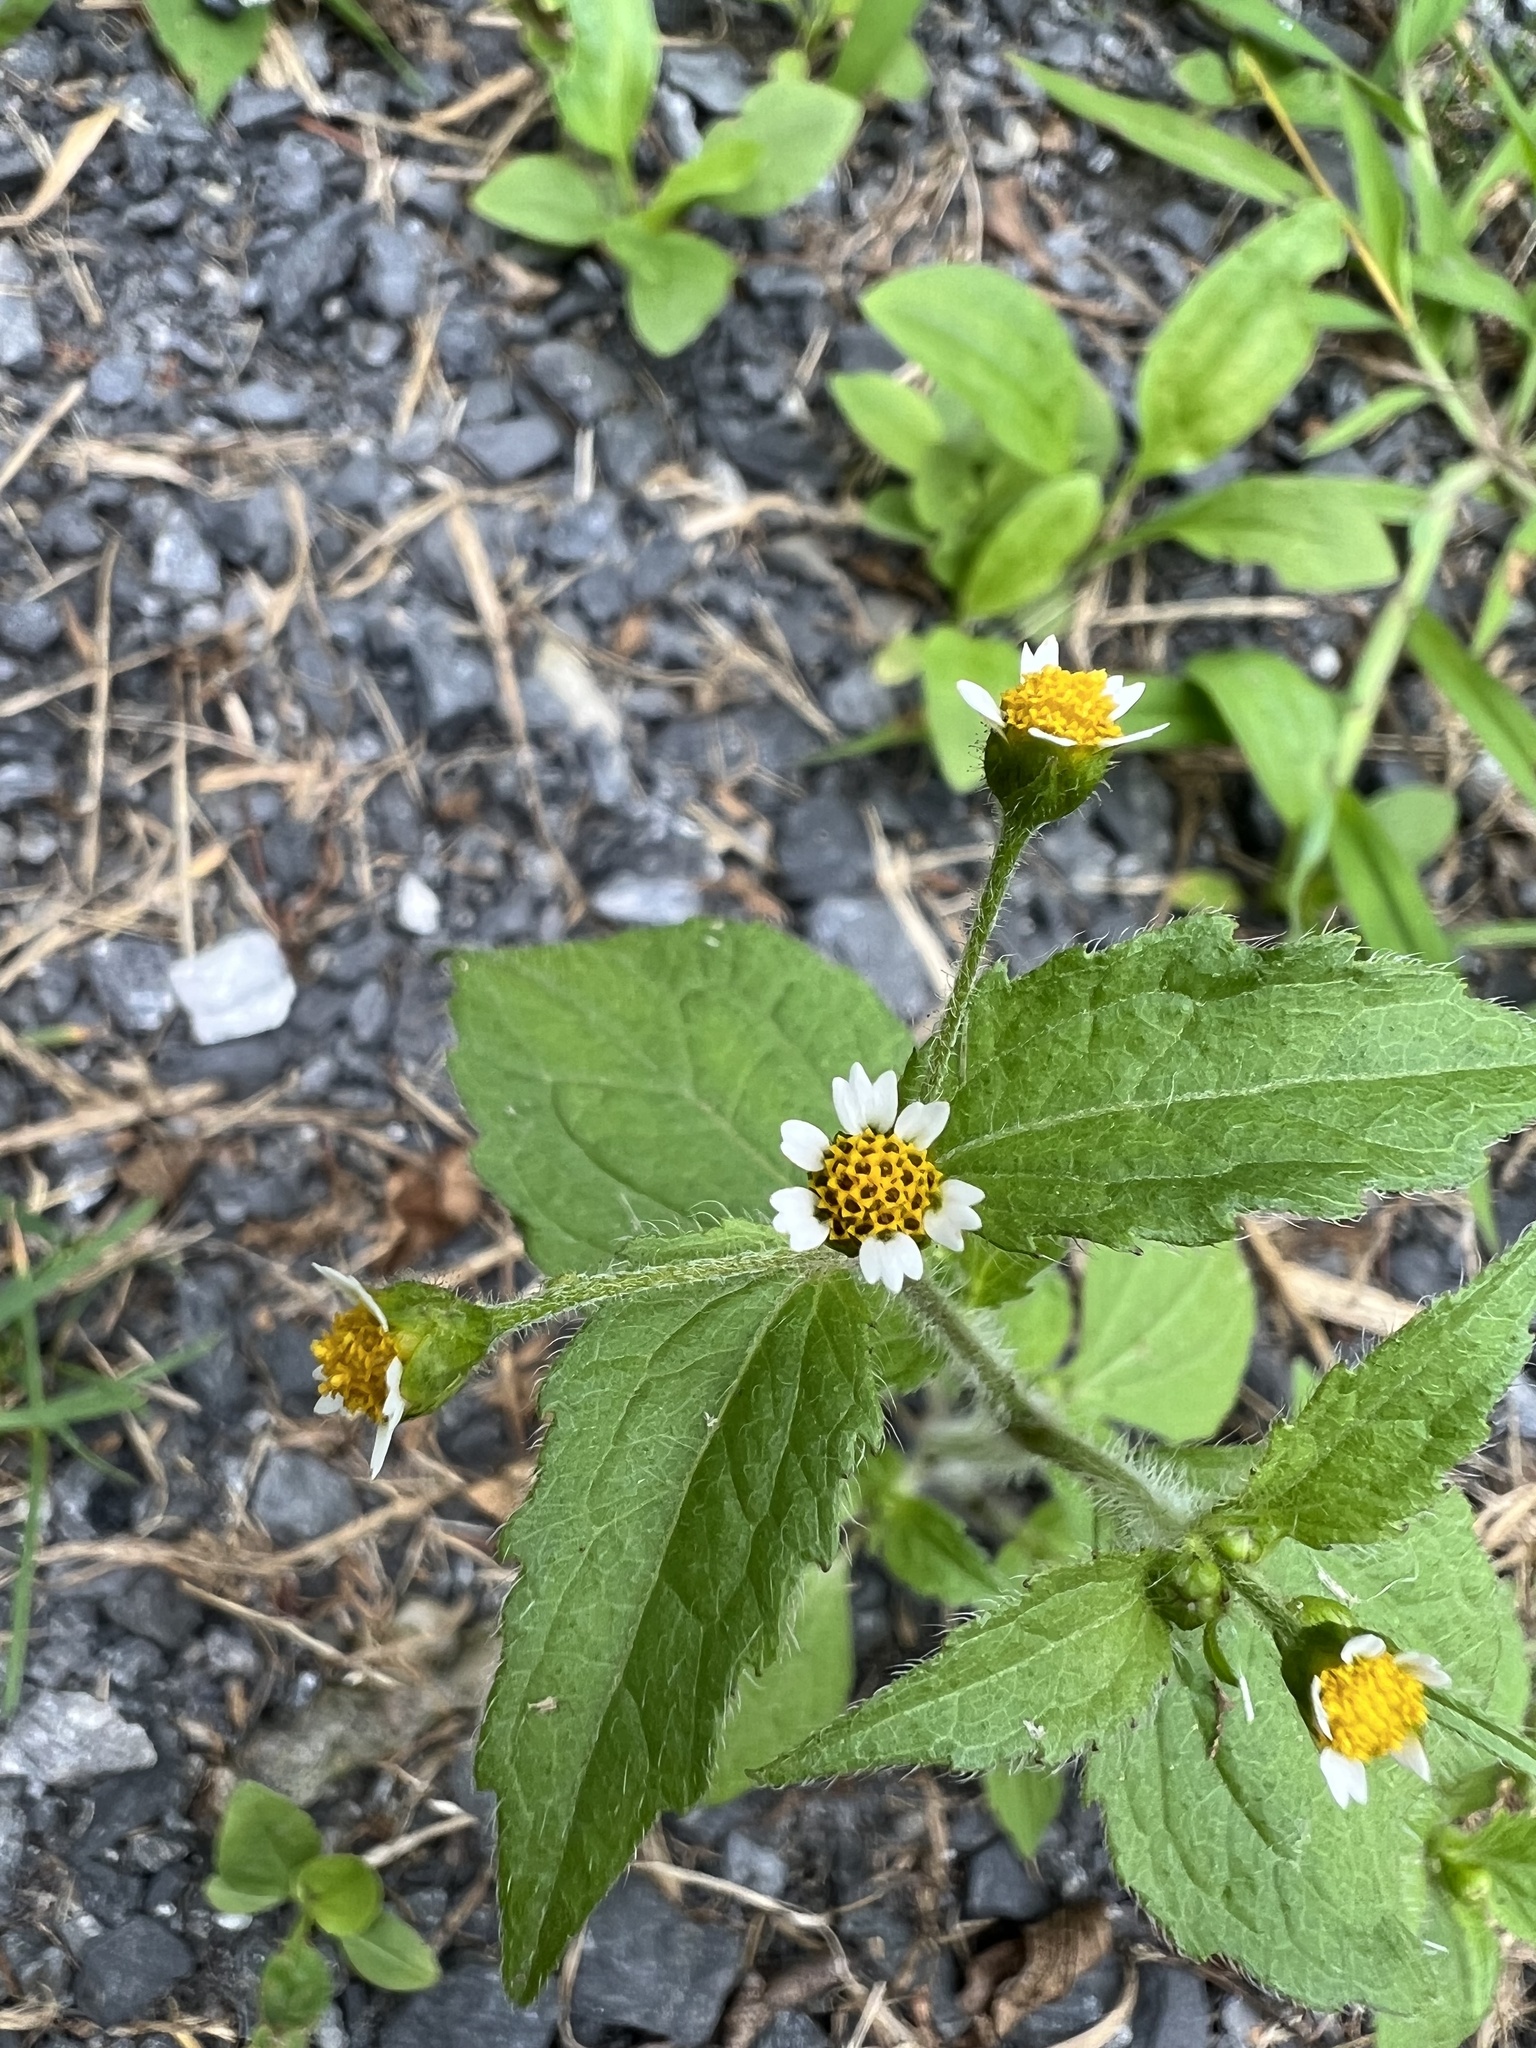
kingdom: Plantae
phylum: Tracheophyta
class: Magnoliopsida
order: Asterales
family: Asteraceae
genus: Galinsoga
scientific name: Galinsoga quadriradiata
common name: Shaggy soldier
